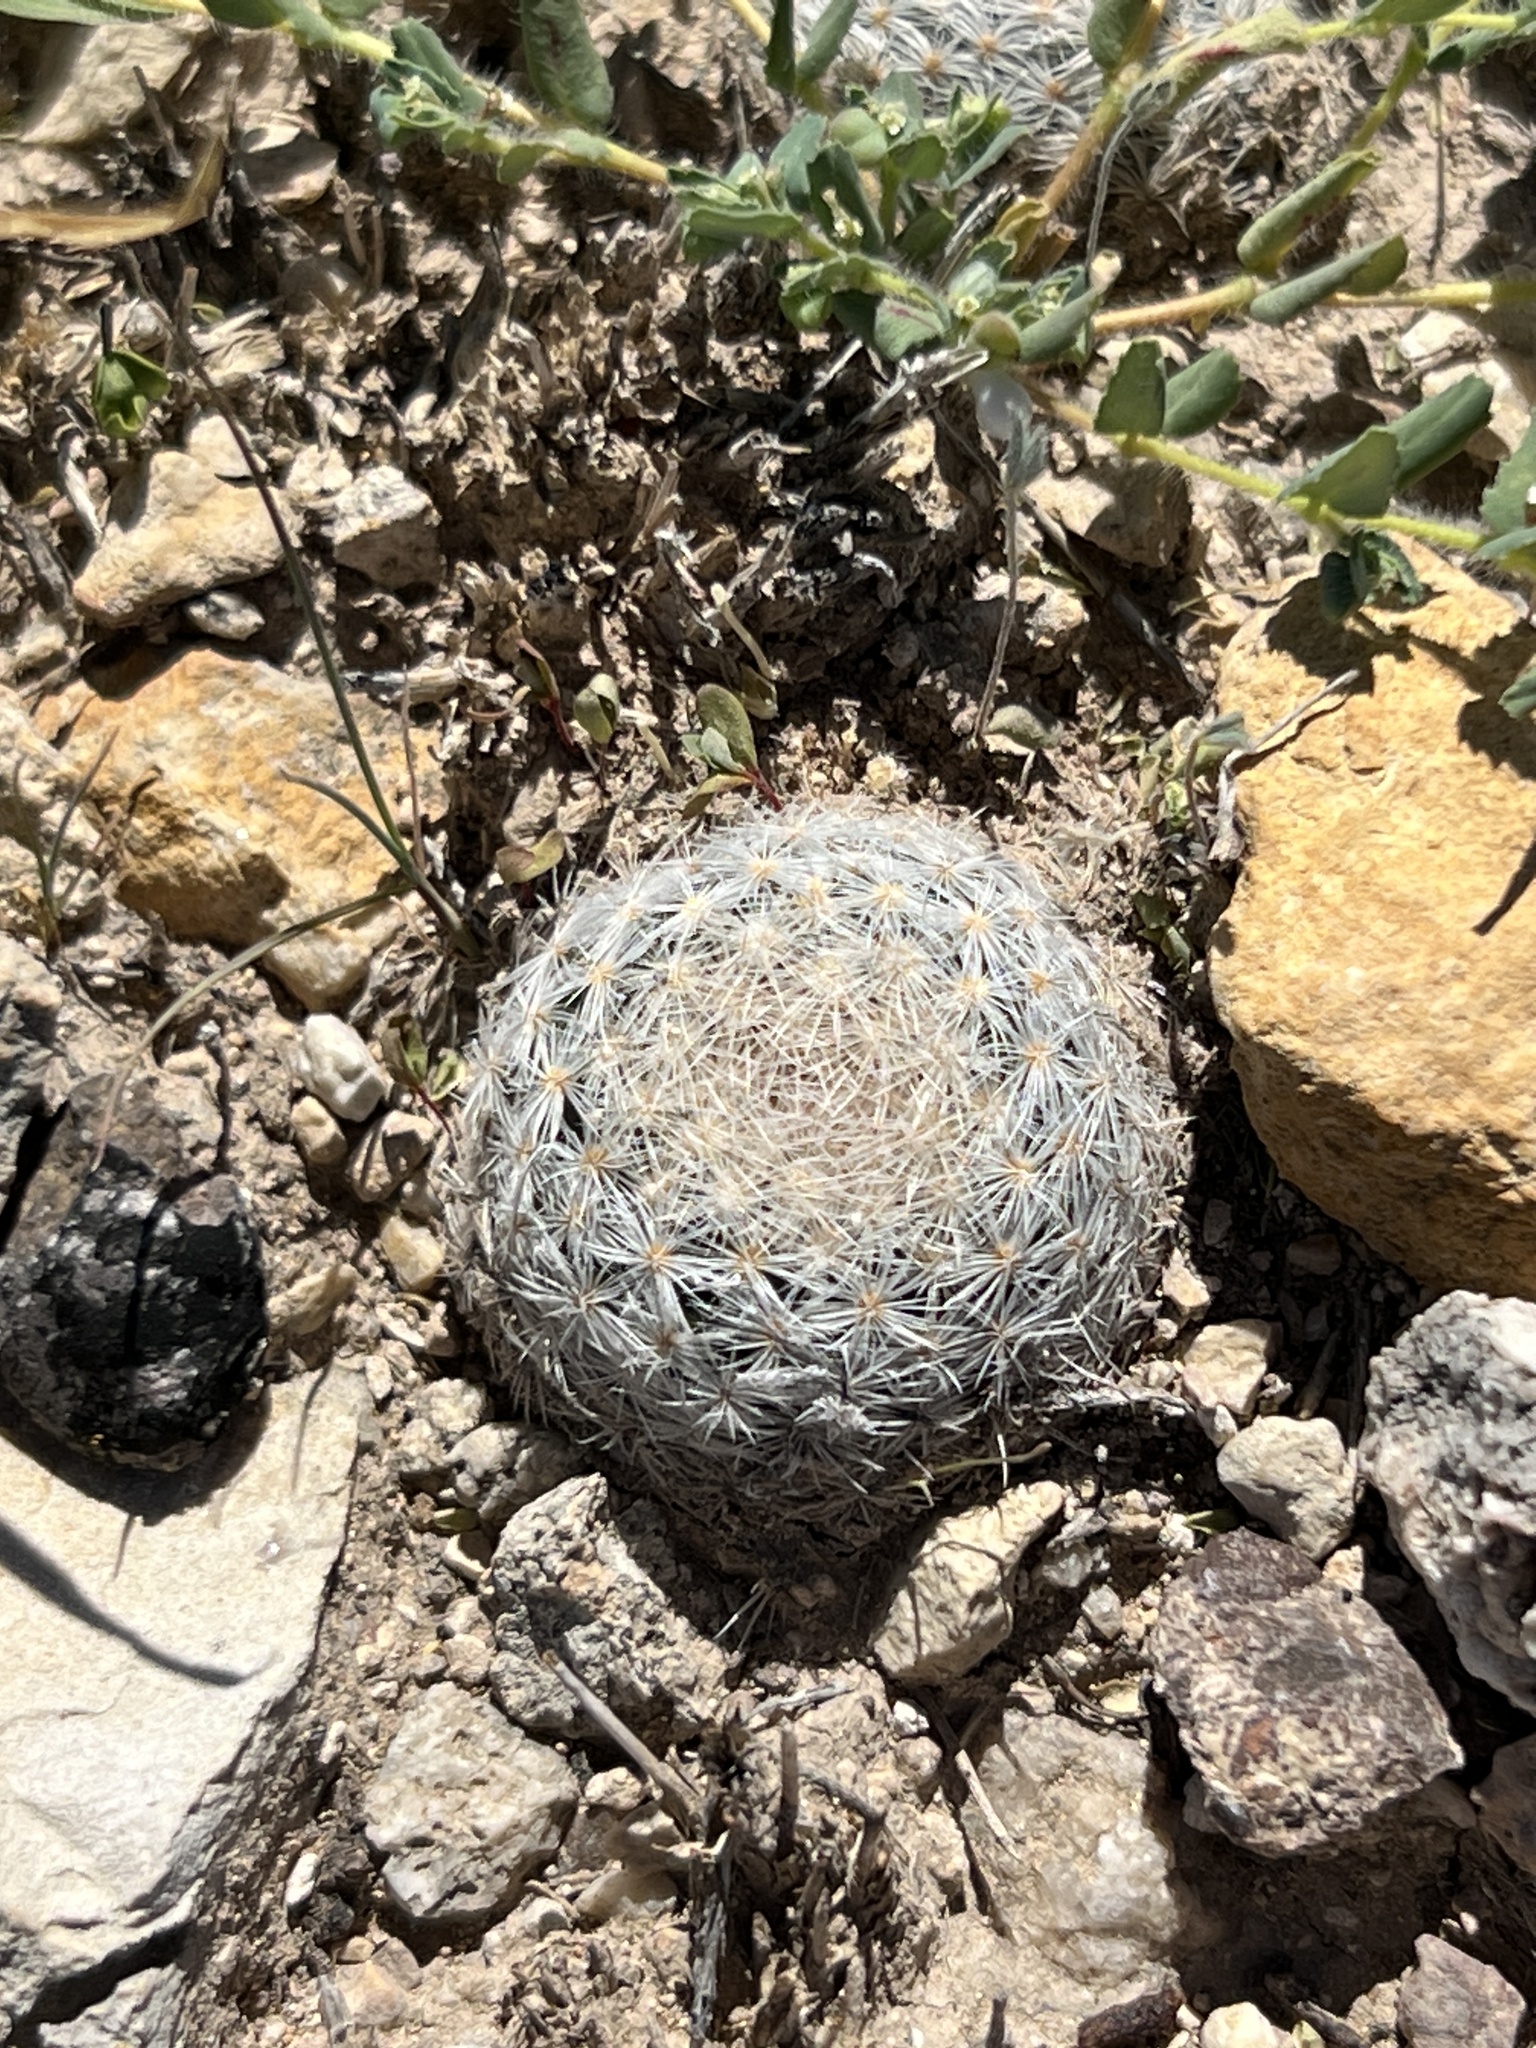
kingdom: Plantae
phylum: Tracheophyta
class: Magnoliopsida
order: Caryophyllales
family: Cactaceae
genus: Mammillaria
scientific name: Mammillaria lasiacantha
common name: Lace-spine nipple cactus
